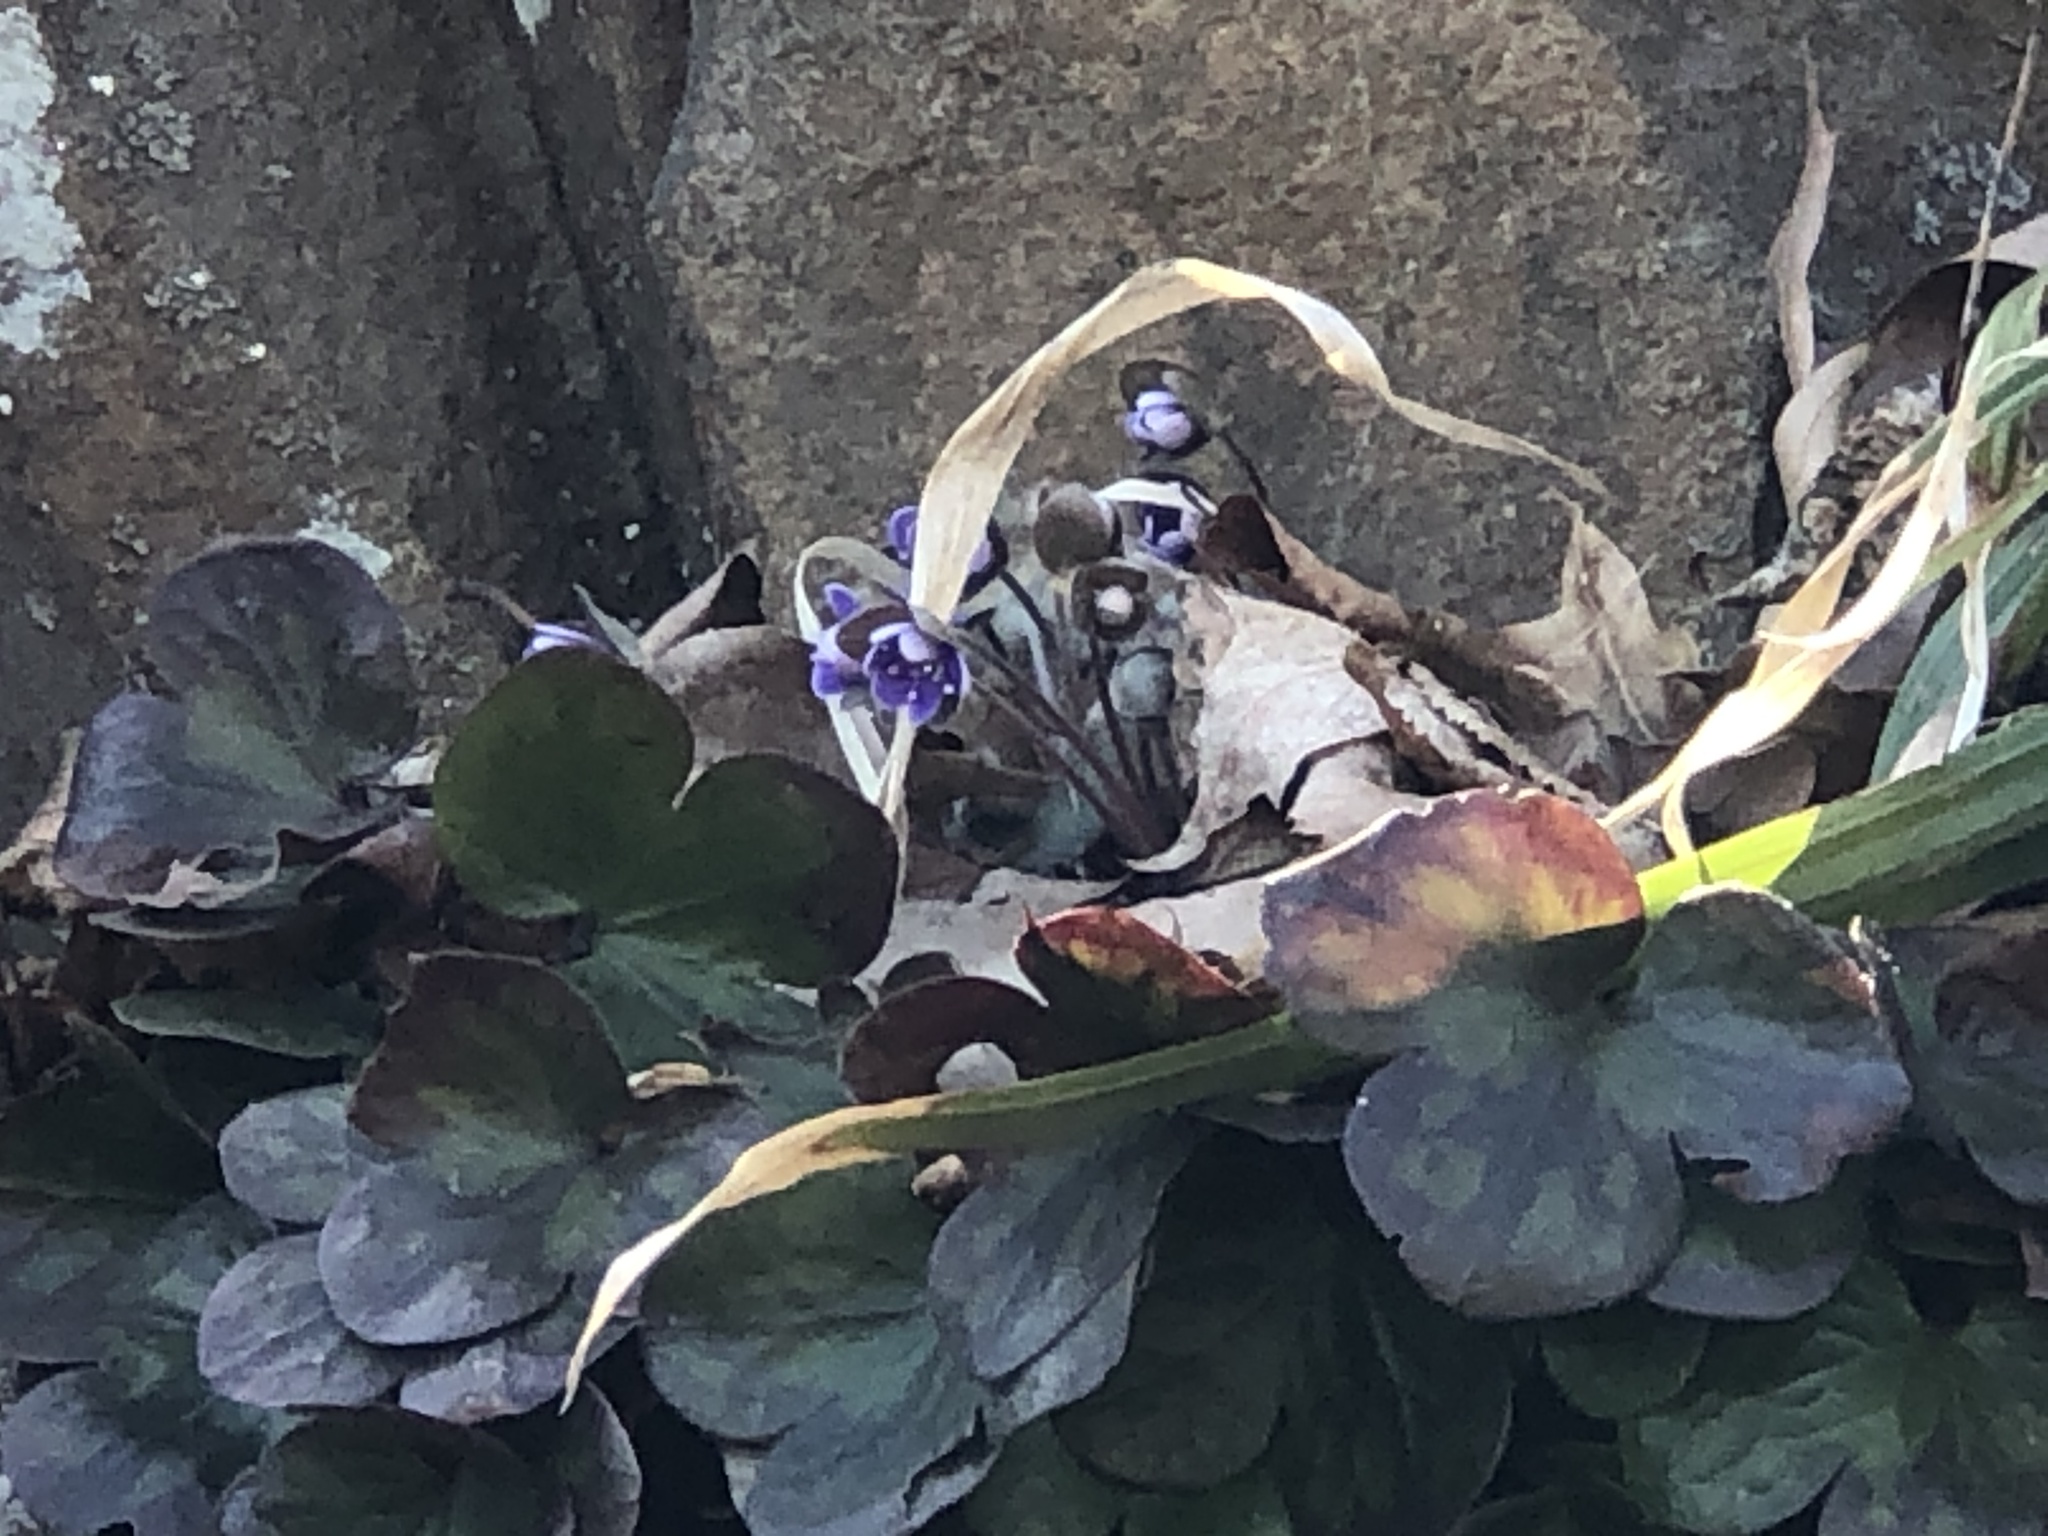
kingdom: Plantae
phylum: Tracheophyta
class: Magnoliopsida
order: Ranunculales
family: Ranunculaceae
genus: Hepatica
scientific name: Hepatica americana
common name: American hepatica
